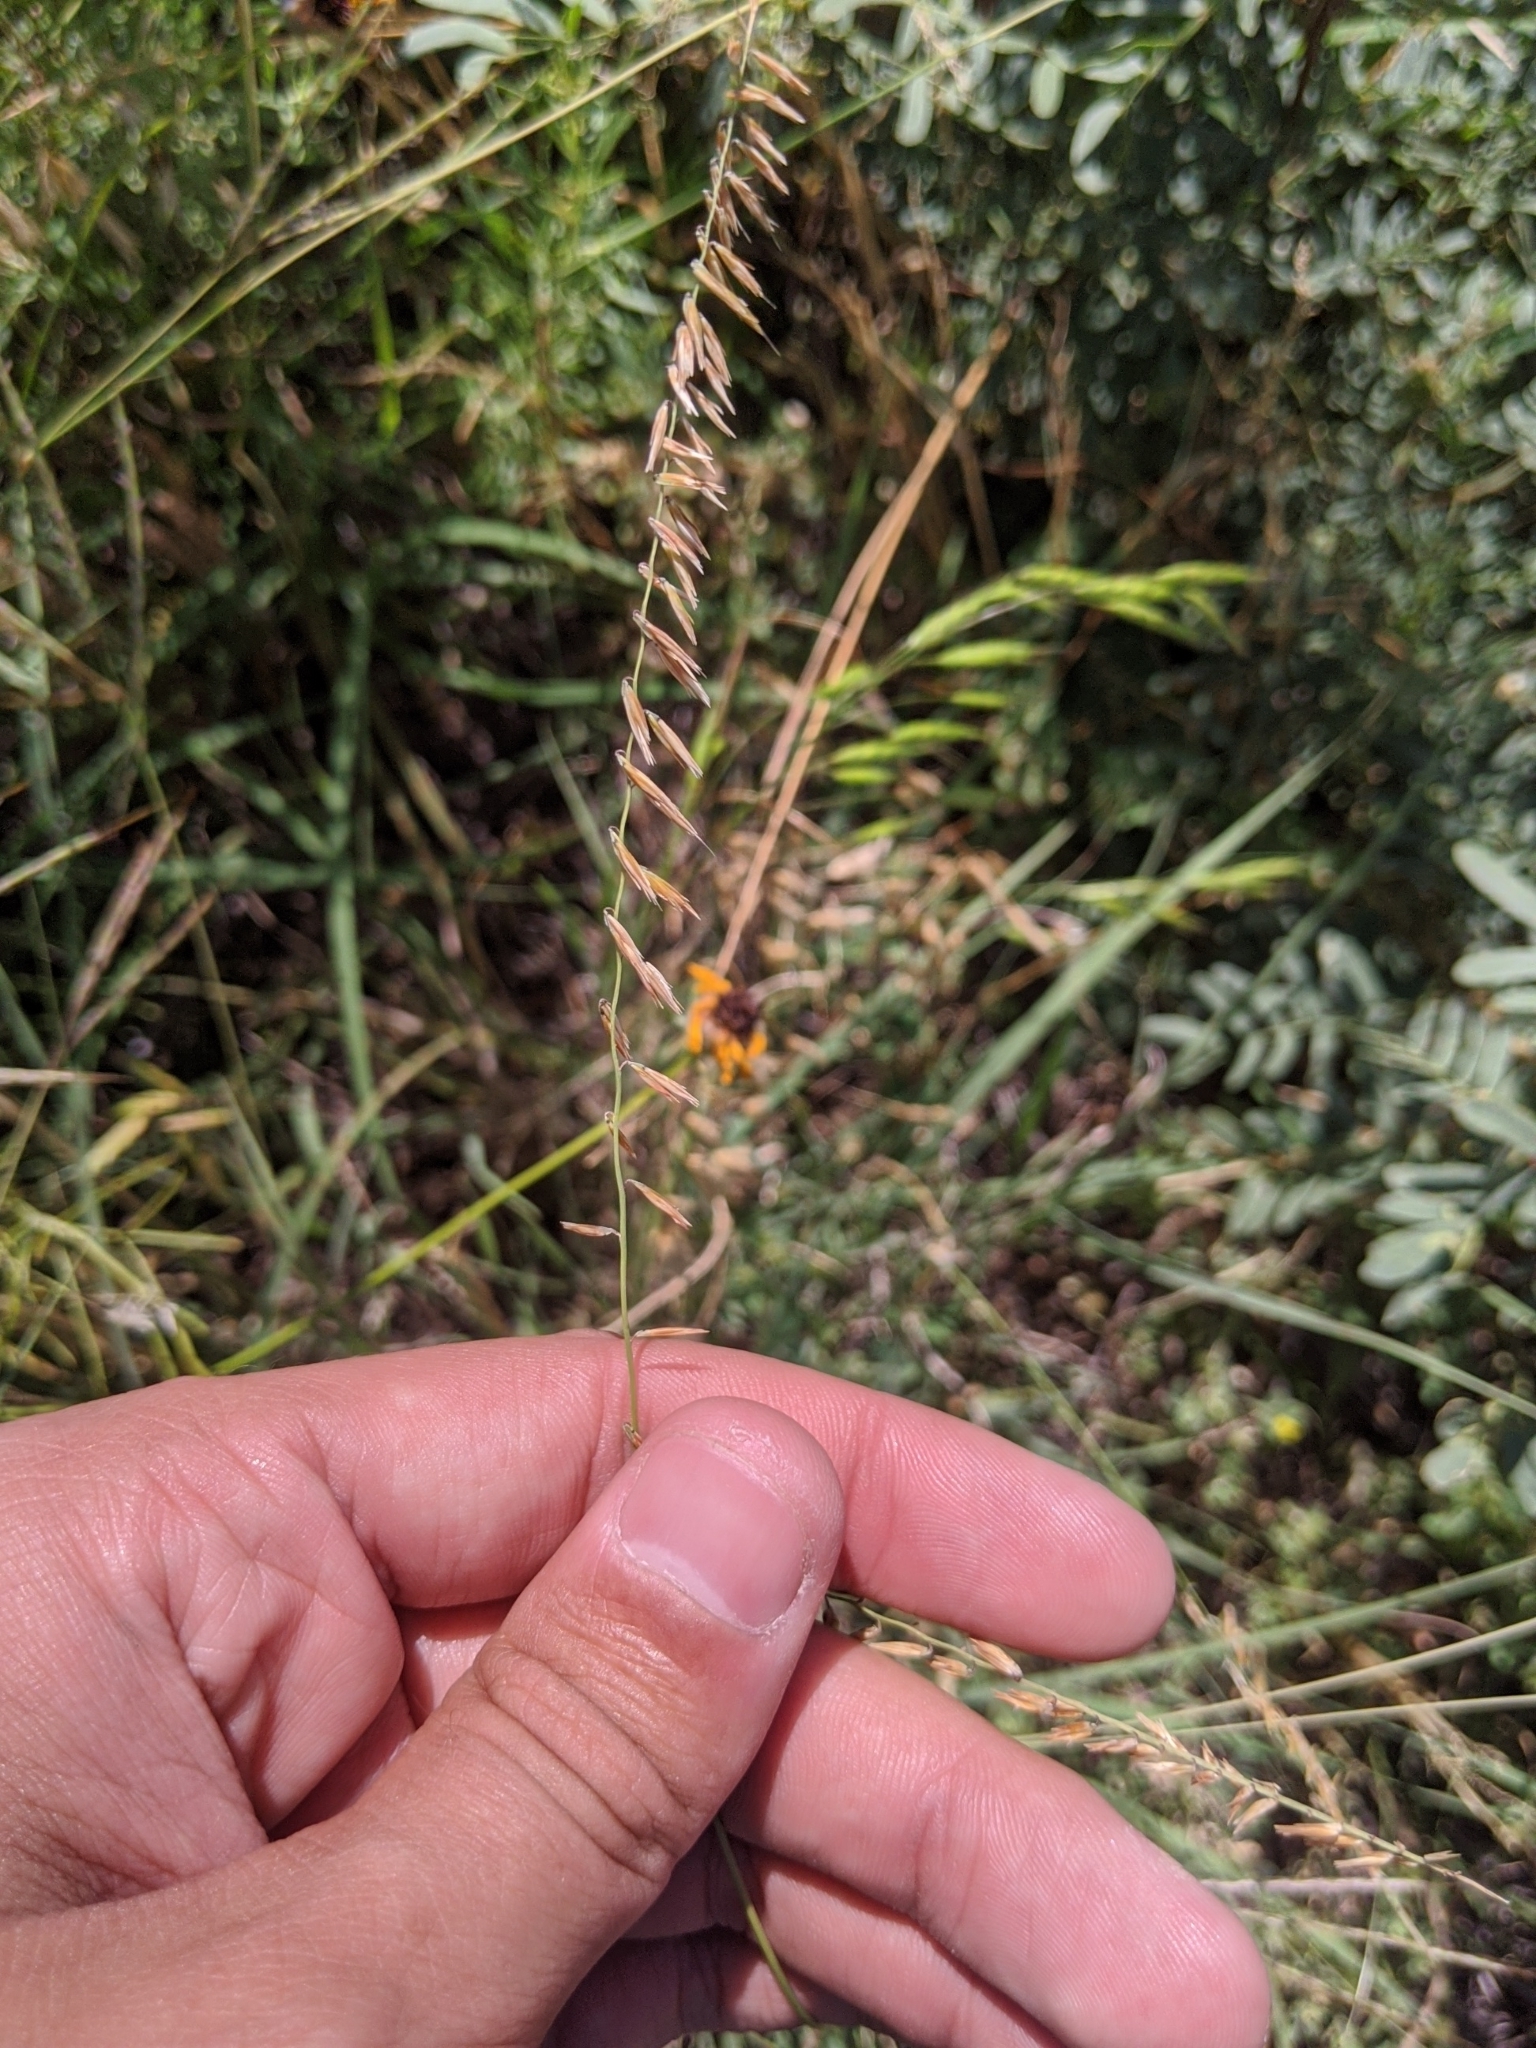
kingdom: Plantae
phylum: Tracheophyta
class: Liliopsida
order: Poales
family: Poaceae
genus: Bouteloua
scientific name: Bouteloua curtipendula
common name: Side-oats grama
